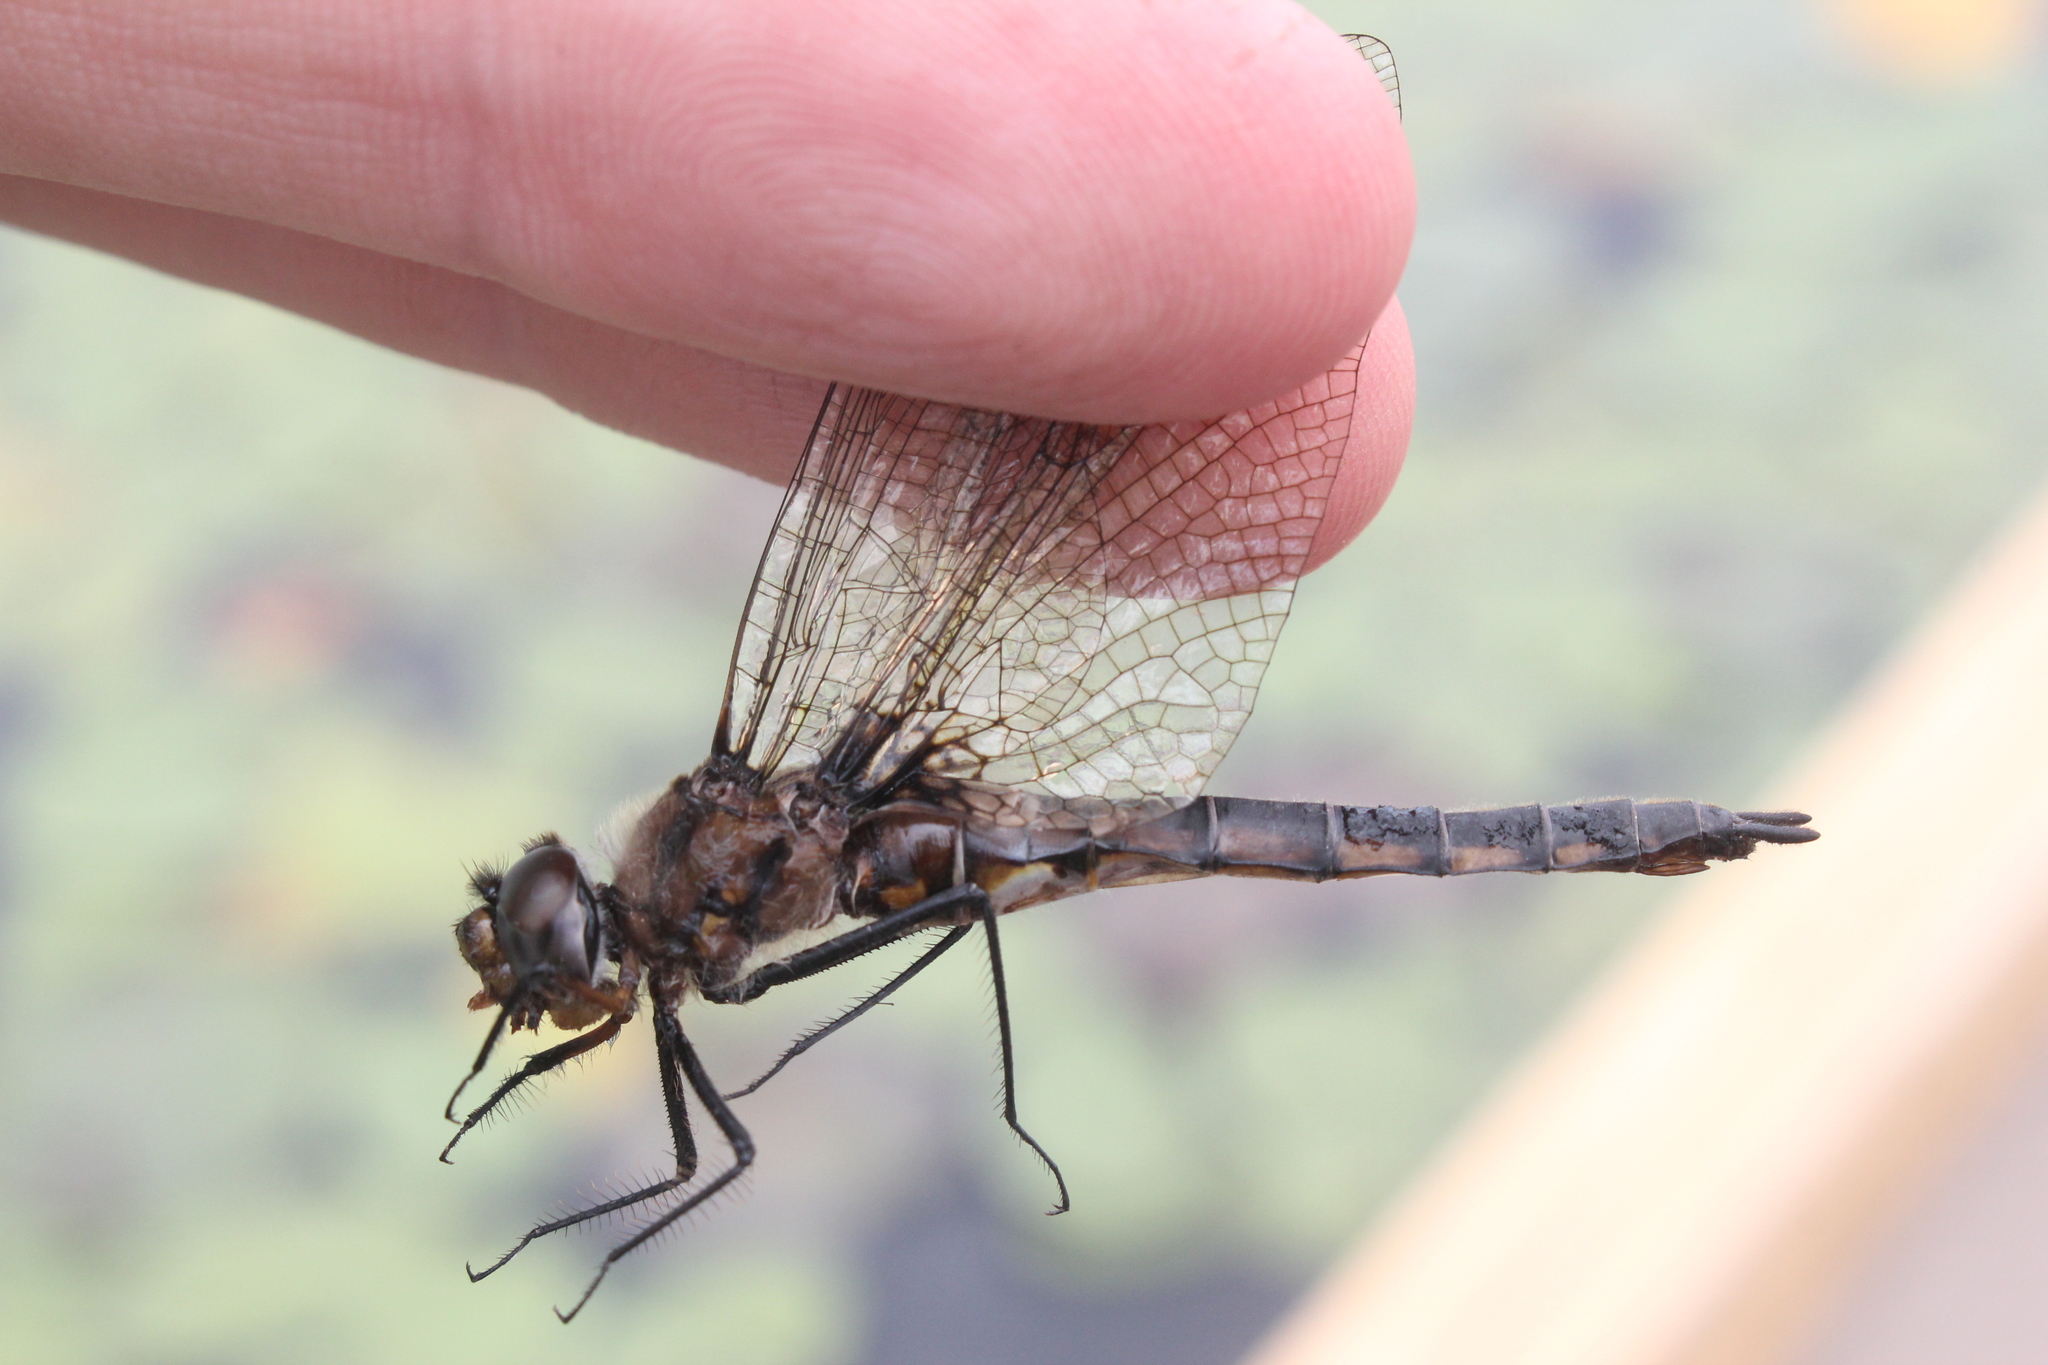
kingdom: Animalia
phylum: Arthropoda
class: Insecta
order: Odonata
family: Corduliidae
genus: Epitheca
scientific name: Epitheca spinigera
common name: Spiny baskettail
